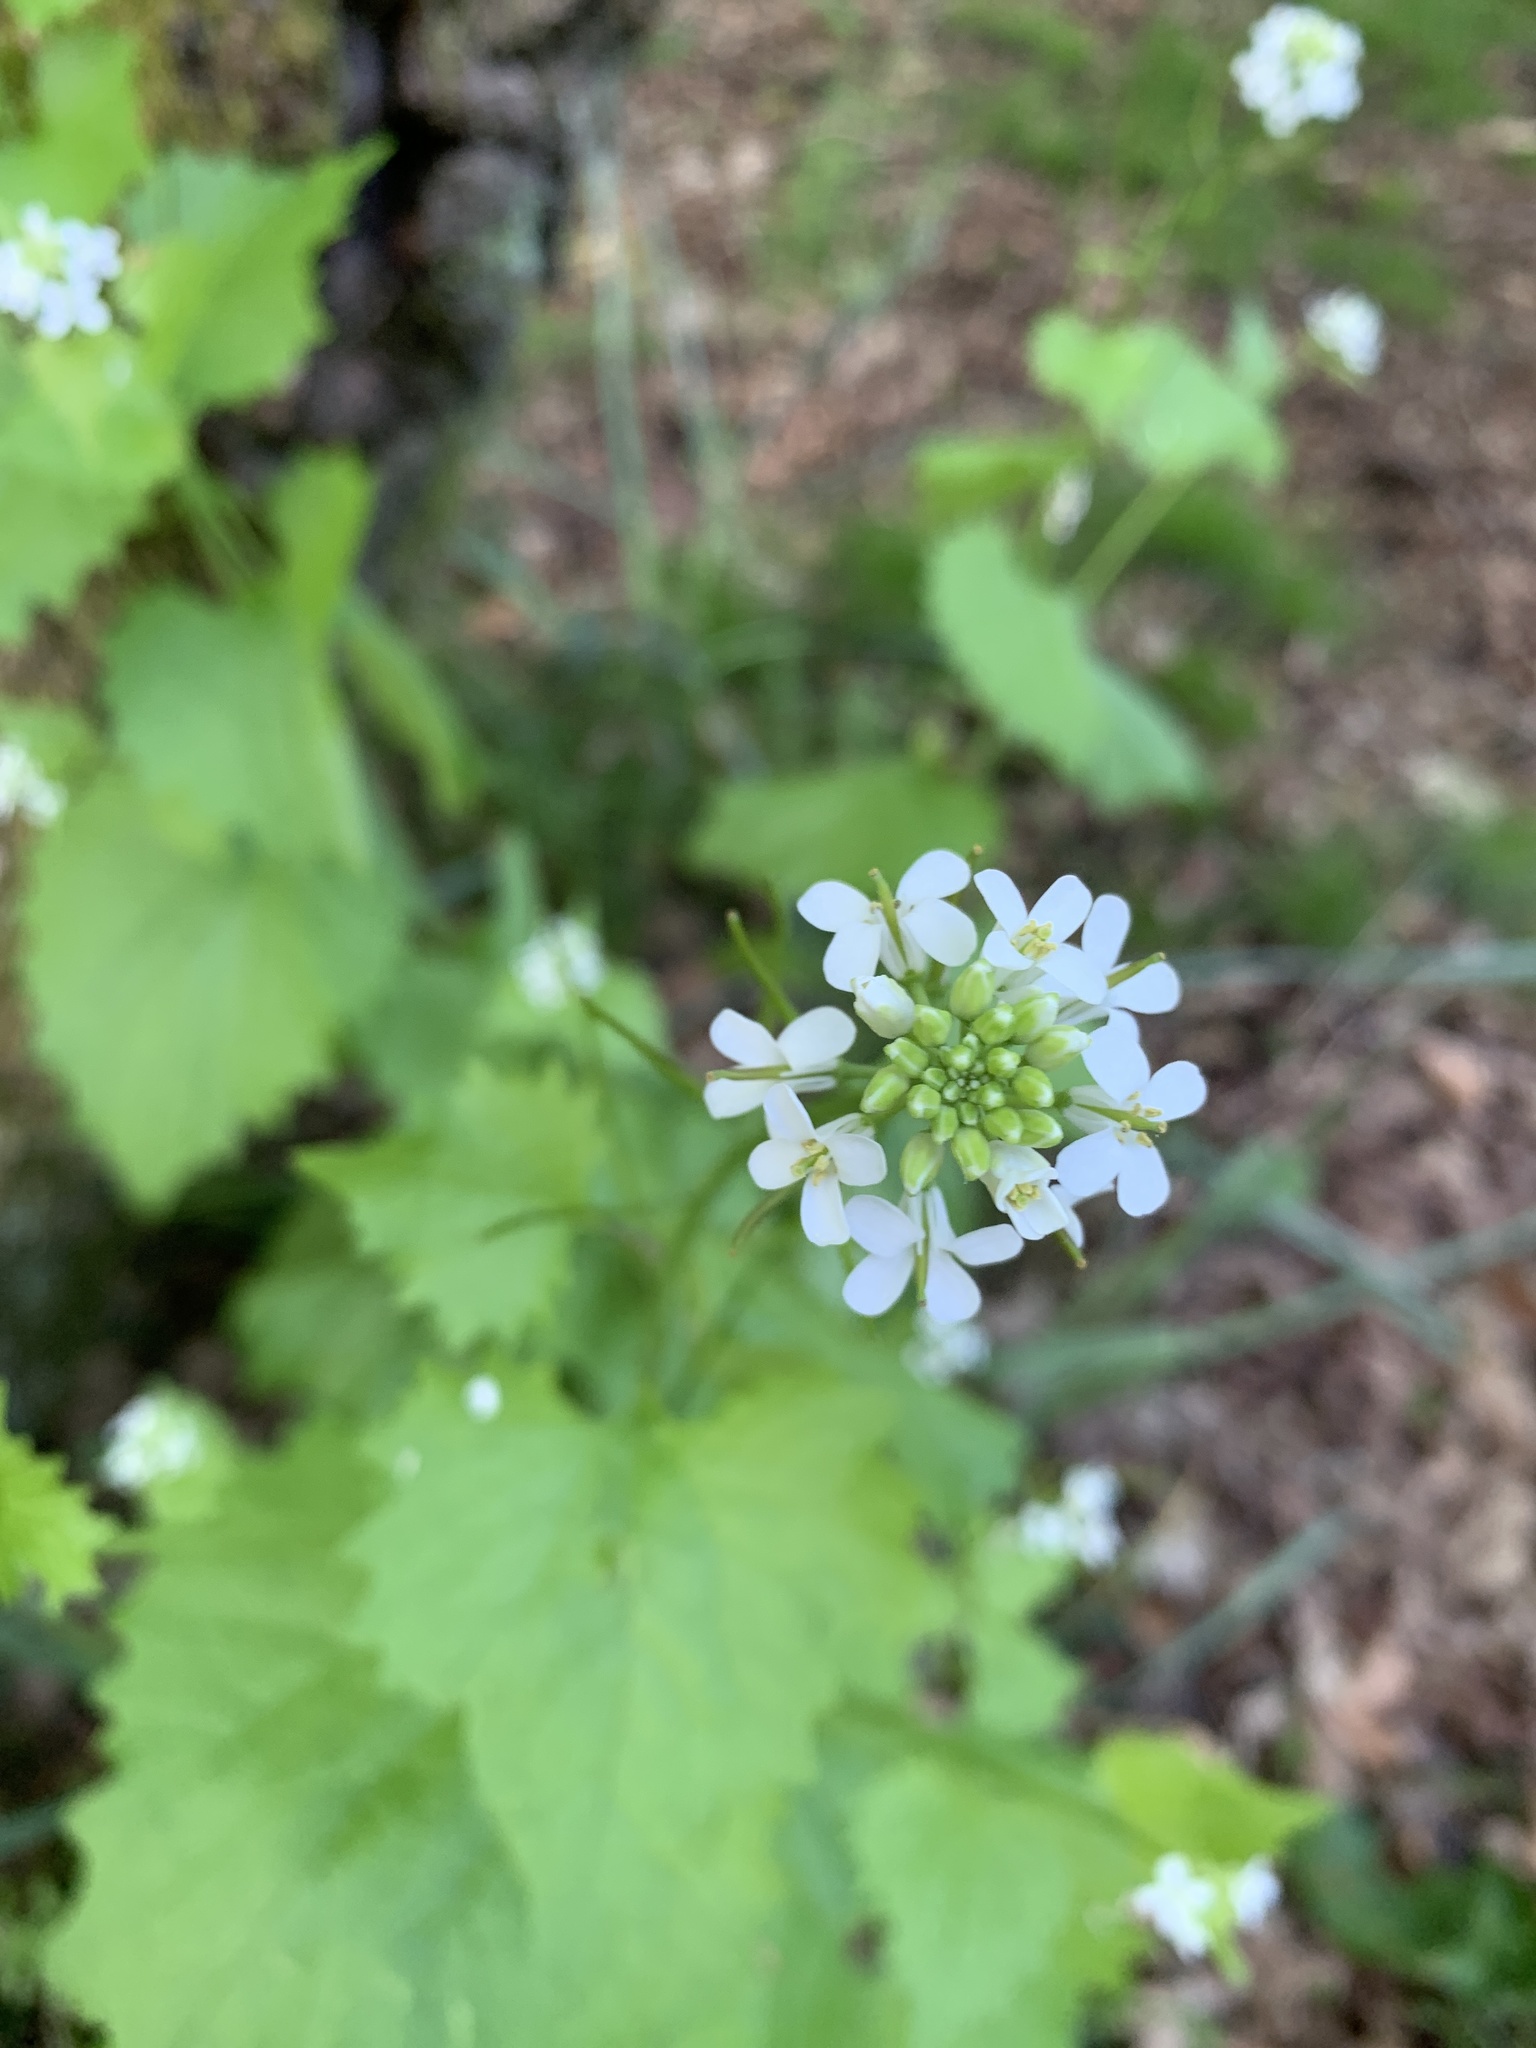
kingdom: Plantae
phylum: Tracheophyta
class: Magnoliopsida
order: Brassicales
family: Brassicaceae
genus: Alliaria
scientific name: Alliaria petiolata
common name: Garlic mustard
